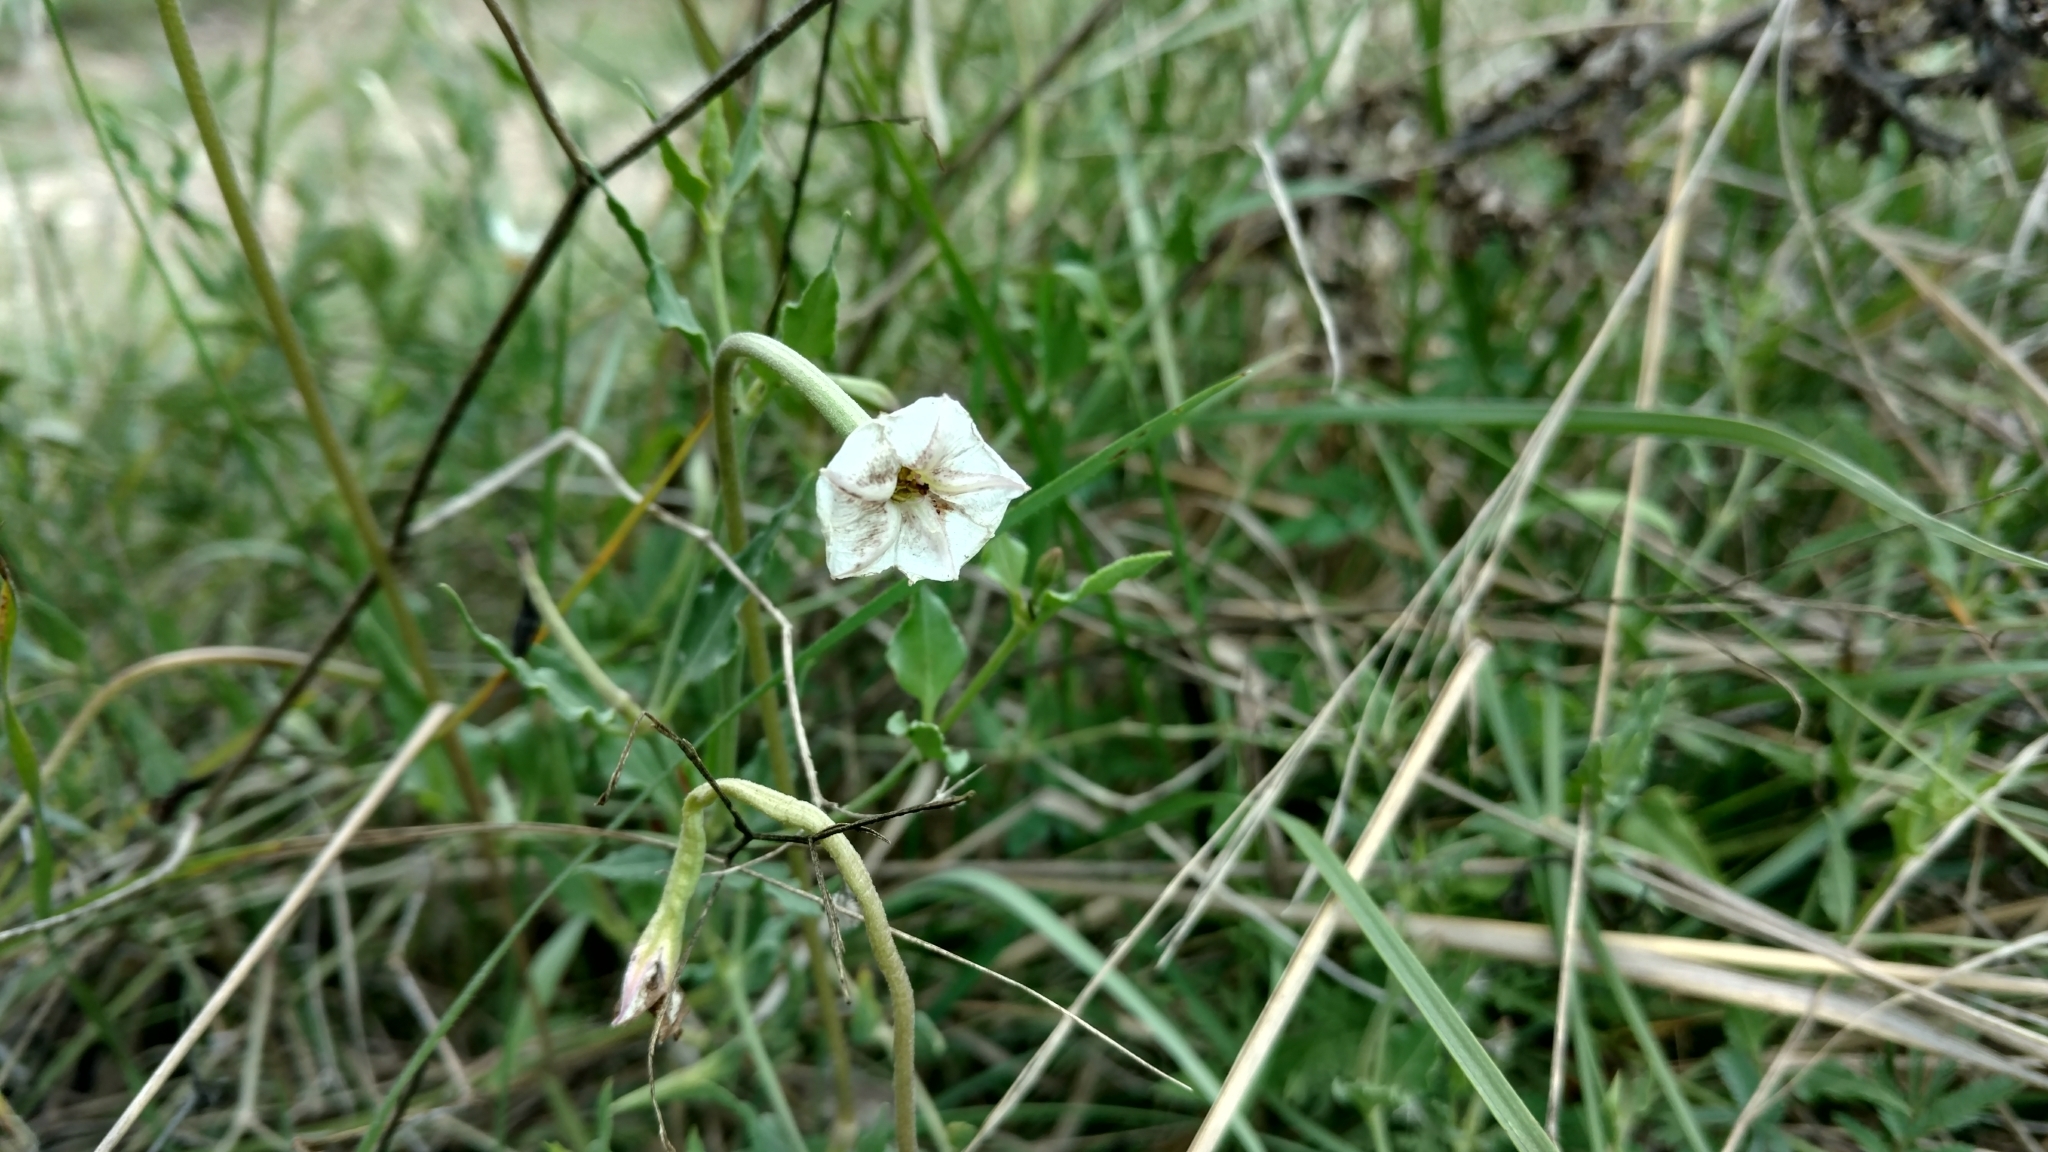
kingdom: Plantae
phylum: Tracheophyta
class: Magnoliopsida
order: Caryophyllales
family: Nyctaginaceae
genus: Acleisanthes
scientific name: Acleisanthes longiflora
